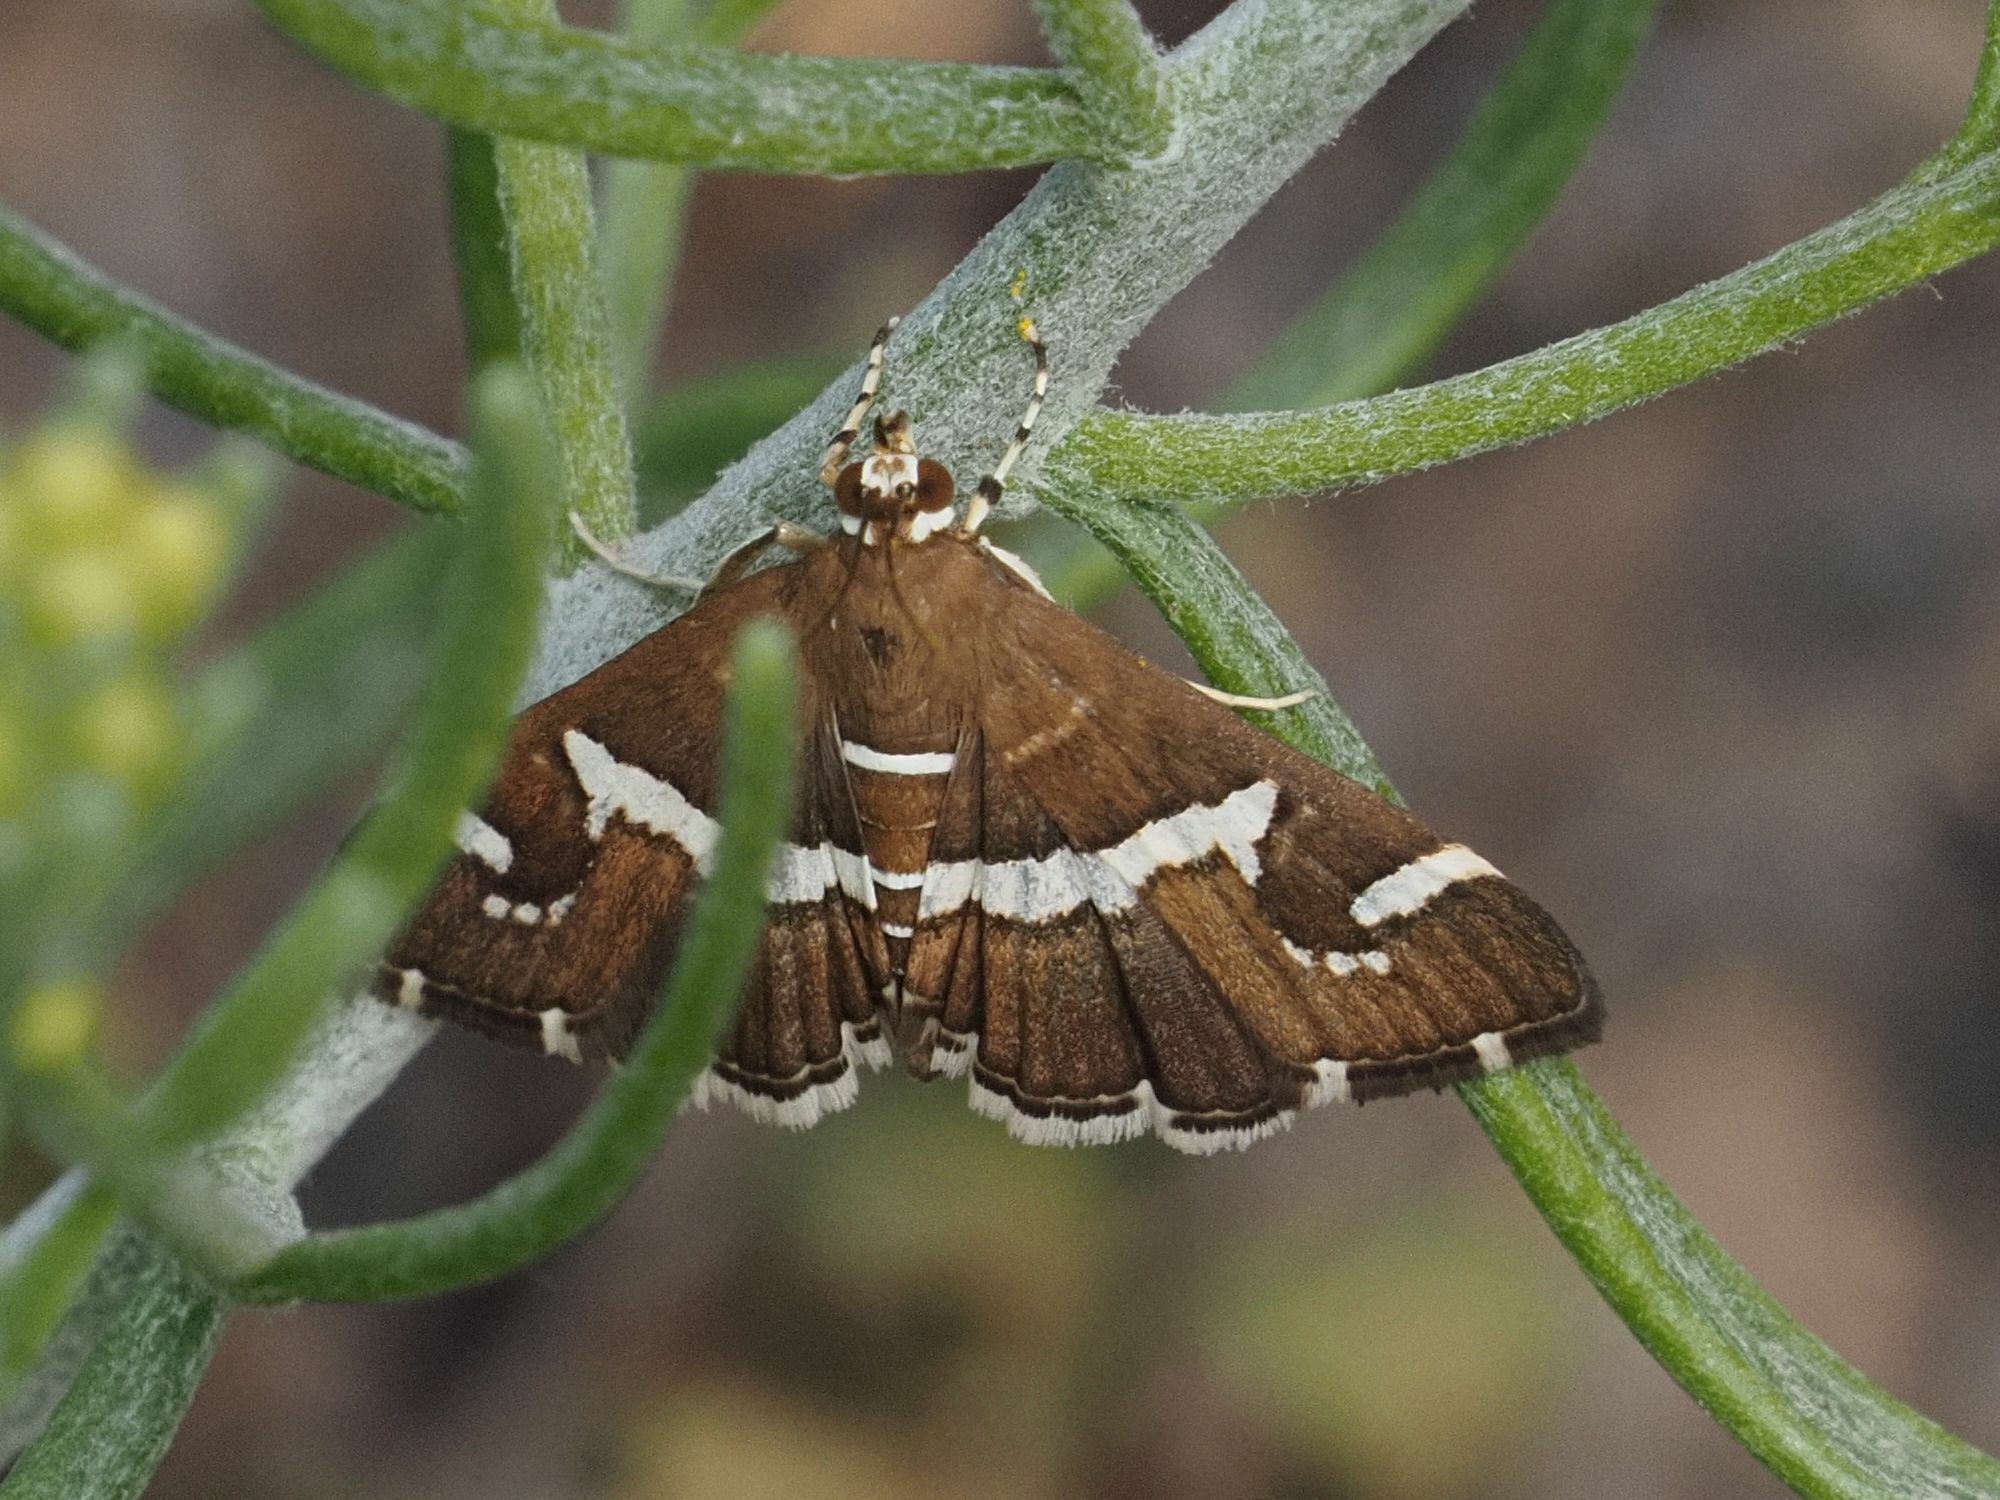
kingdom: Animalia
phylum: Arthropoda
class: Insecta
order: Lepidoptera
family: Crambidae
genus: Spoladea
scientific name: Spoladea recurvalis
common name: Beet webworm moth
